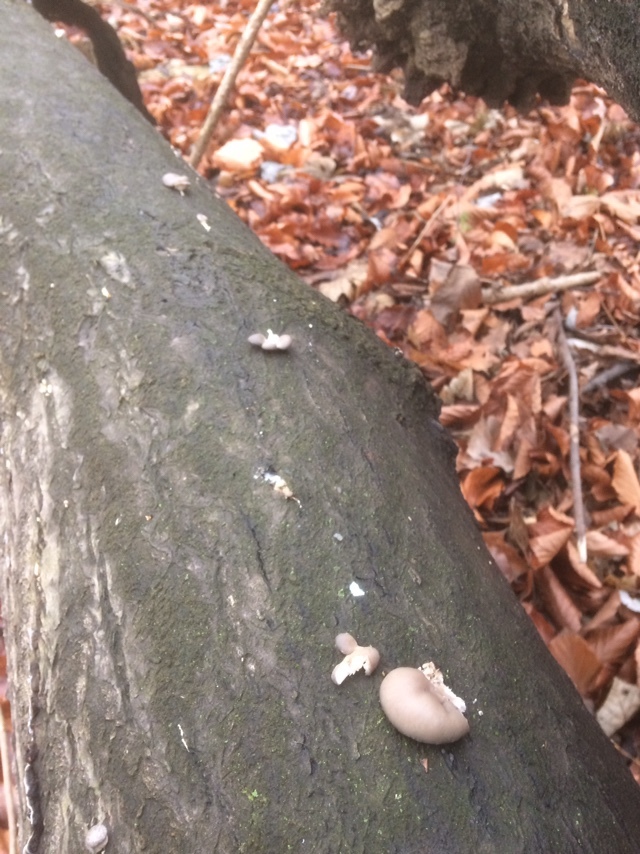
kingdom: Fungi
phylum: Basidiomycota
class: Agaricomycetes
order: Agaricales
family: Pleurotaceae
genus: Pleurotus
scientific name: Pleurotus ostreatus
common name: Oyster mushroom
